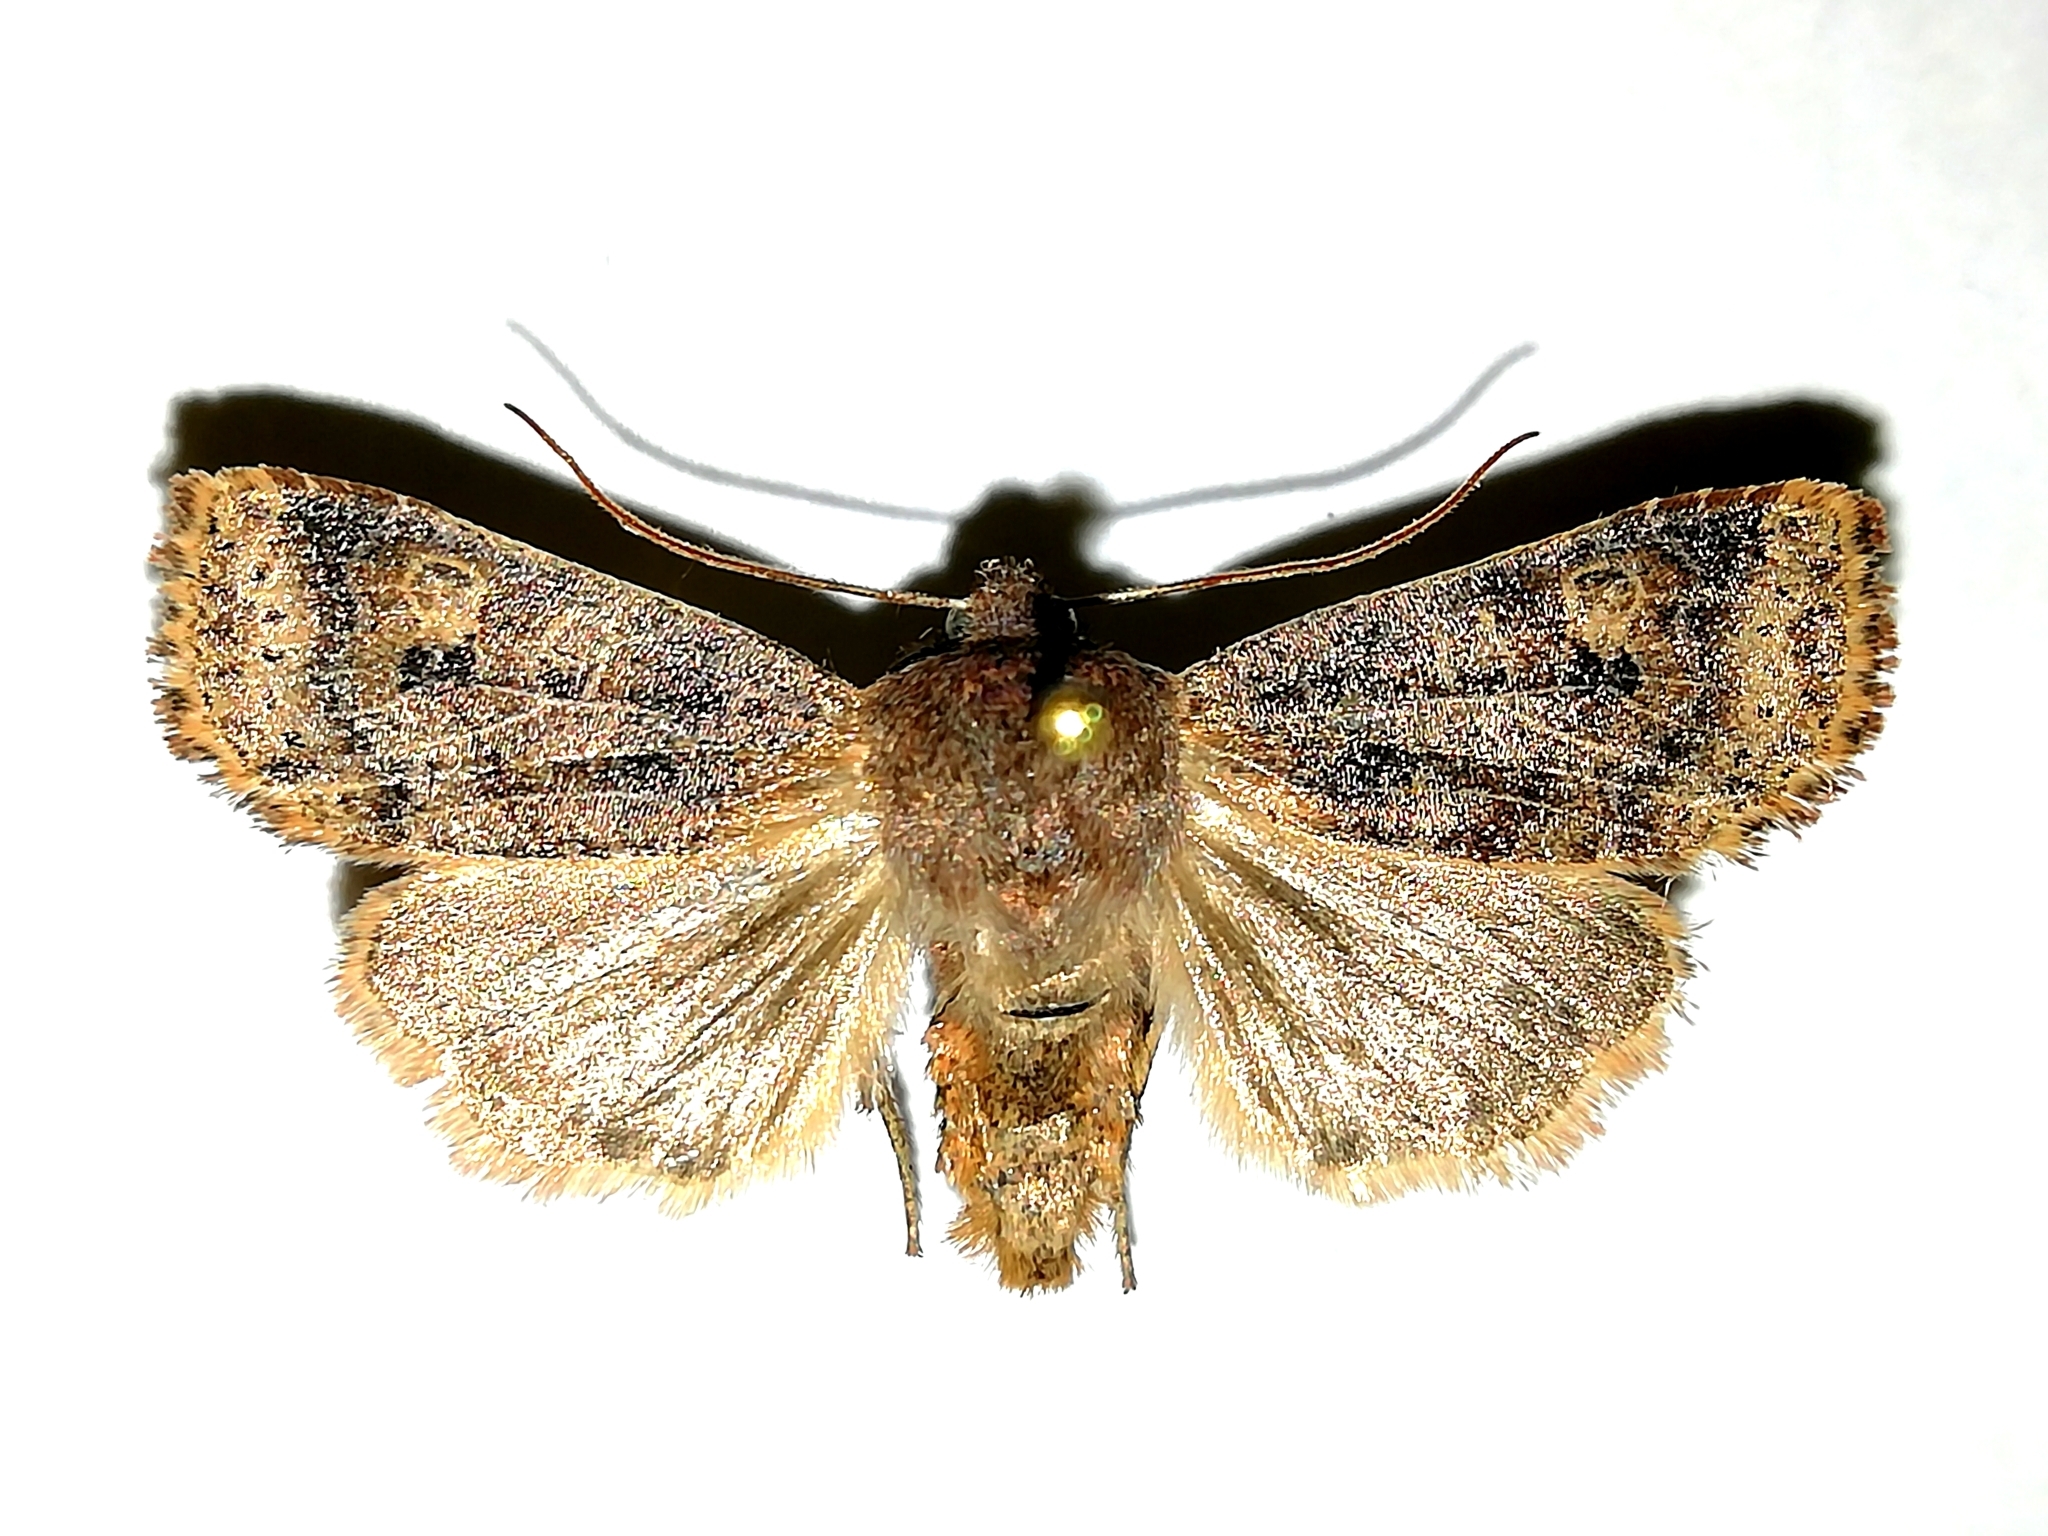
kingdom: Animalia
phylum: Arthropoda
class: Insecta
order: Lepidoptera
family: Noctuidae
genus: Conistra
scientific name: Conistra vaccinii
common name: Chestnut
